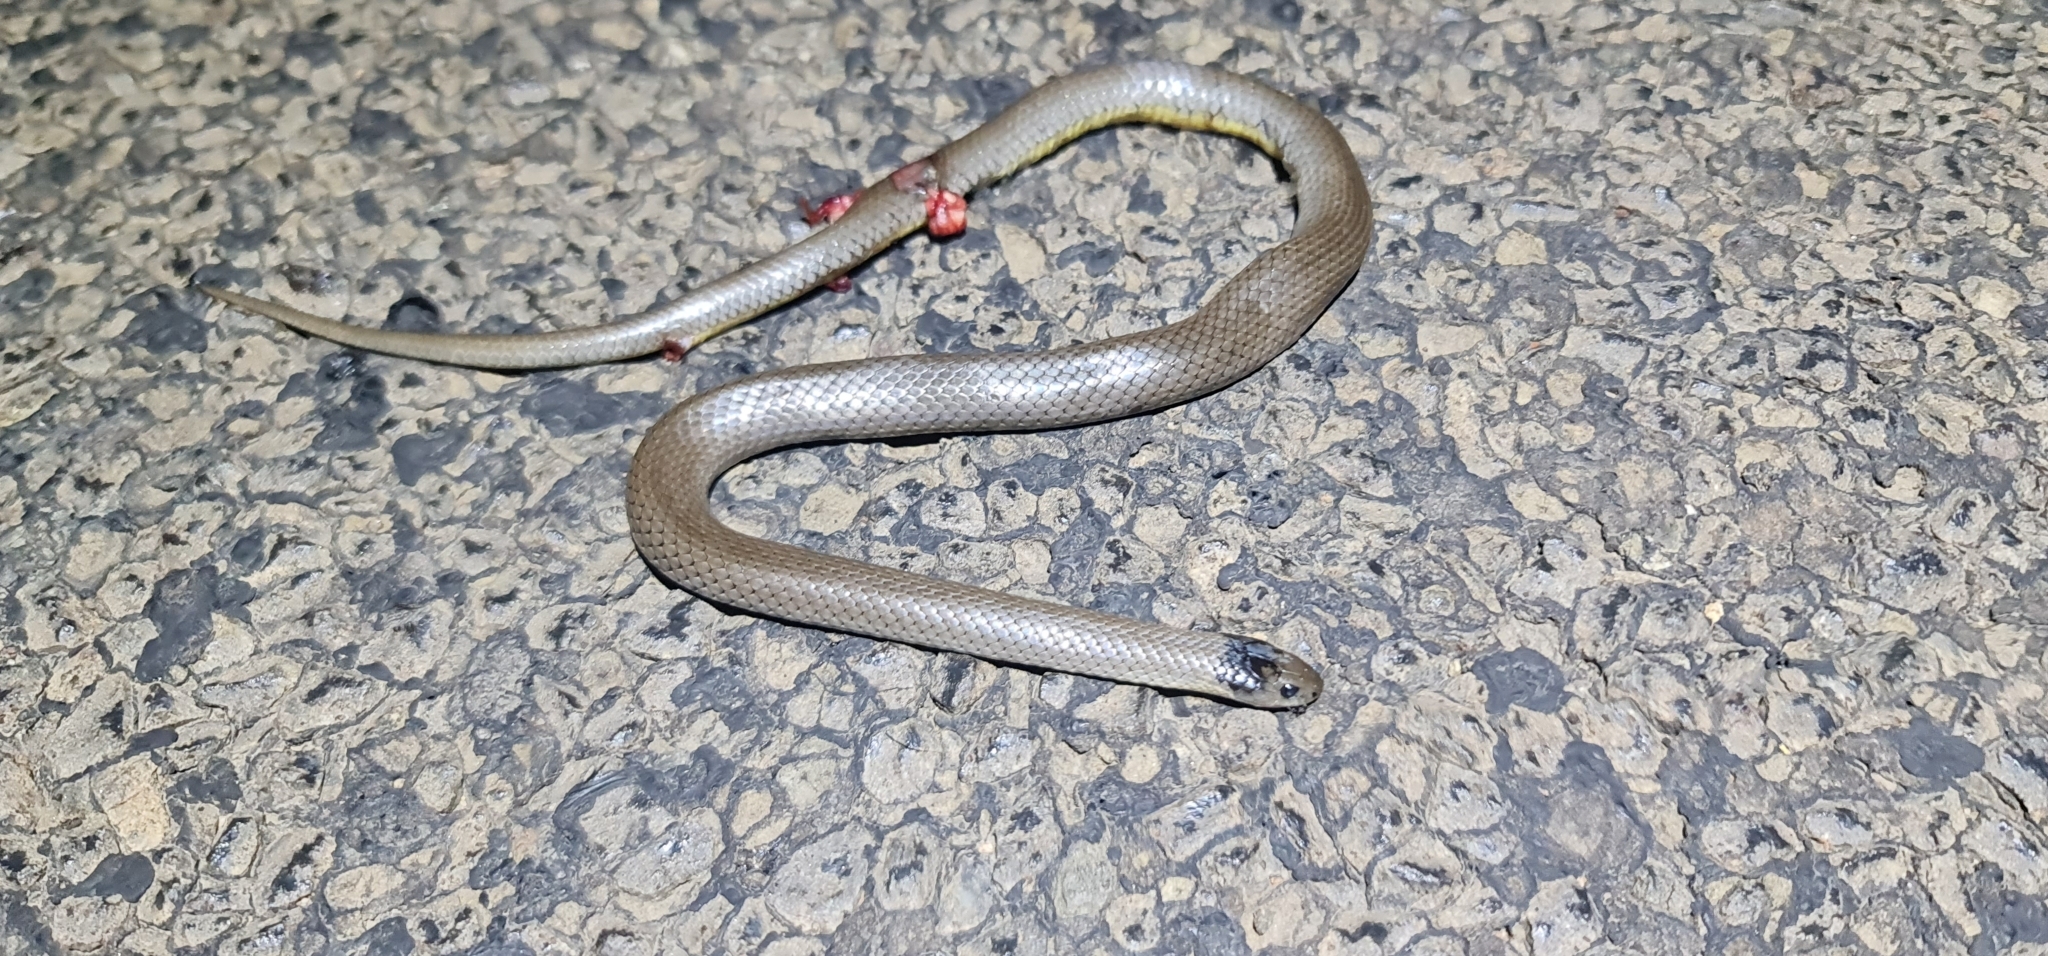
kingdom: Animalia
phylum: Chordata
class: Squamata
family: Elapidae
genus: Hemiaspis
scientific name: Hemiaspis damelii
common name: Grey snake
